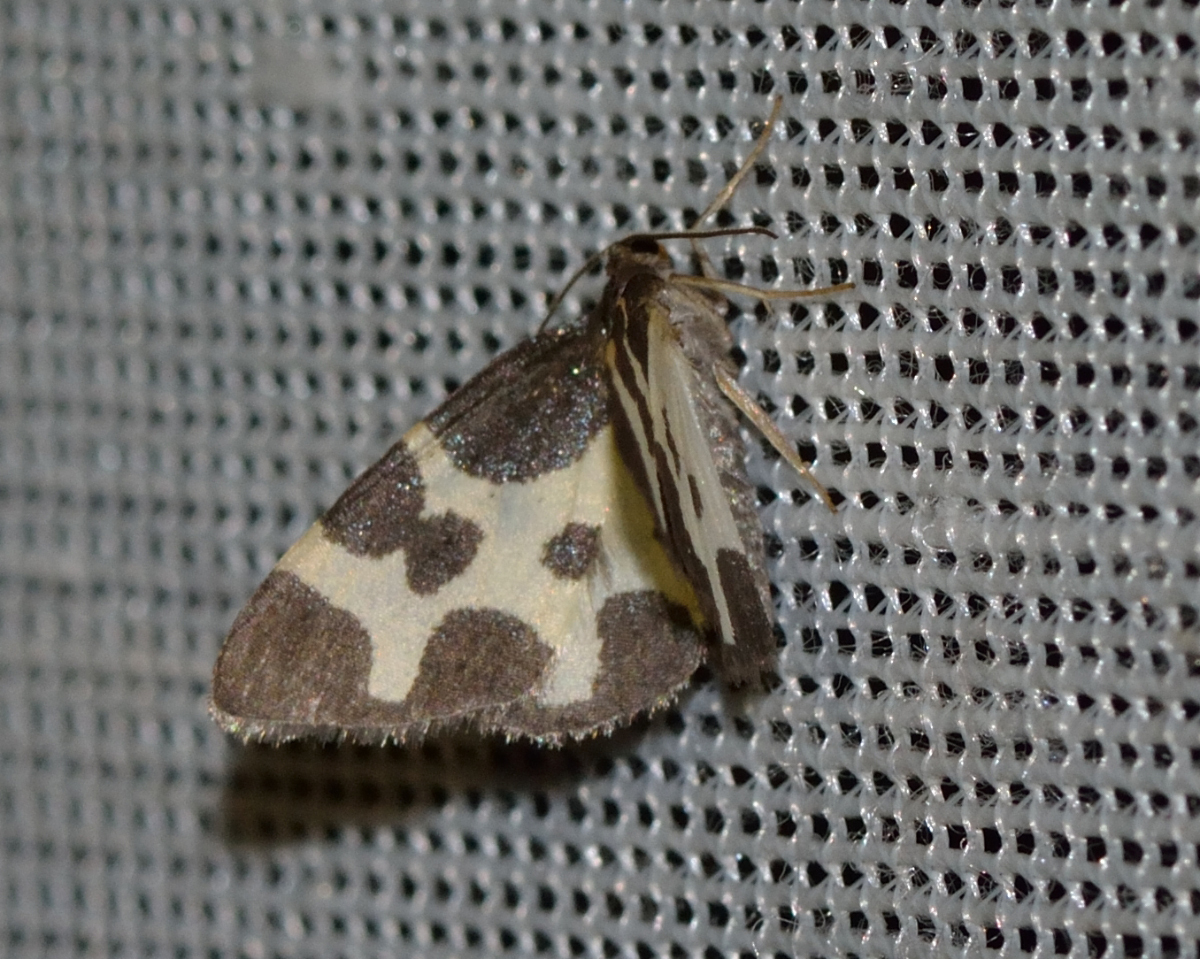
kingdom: Animalia
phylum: Arthropoda
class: Insecta
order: Lepidoptera
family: Geometridae
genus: Lomaspilis
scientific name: Lomaspilis opis
